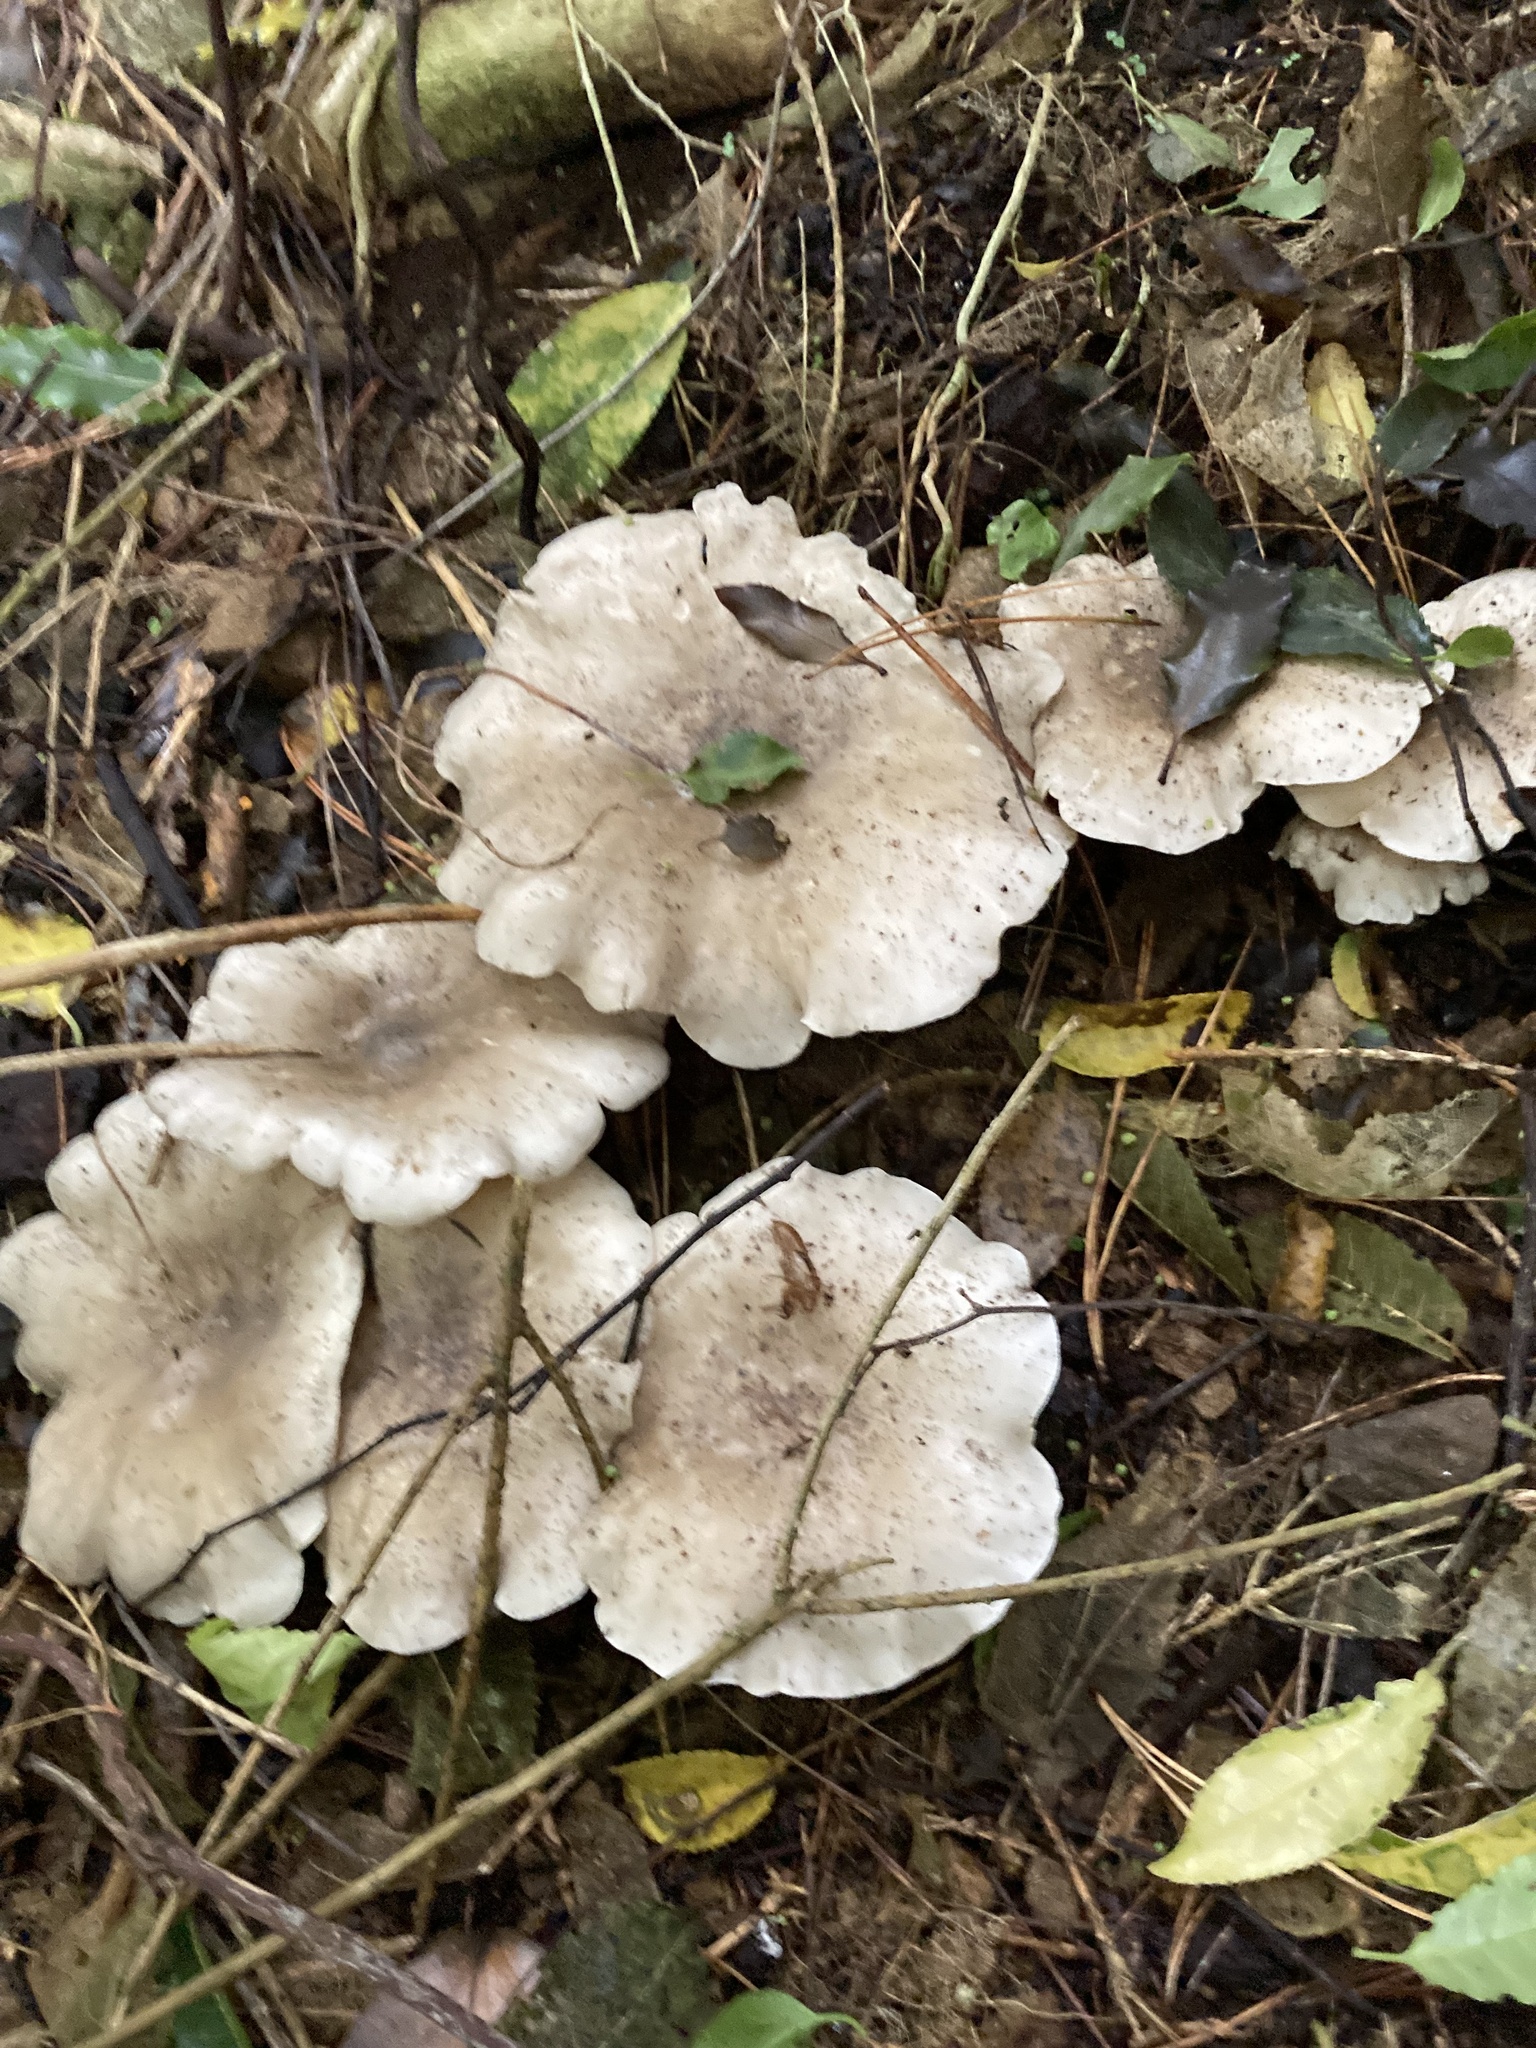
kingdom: Fungi
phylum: Basidiomycota
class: Agaricomycetes
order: Agaricales
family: Tricholomataceae
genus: Clitocybe
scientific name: Clitocybe nebularis
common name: Clouded agaric
